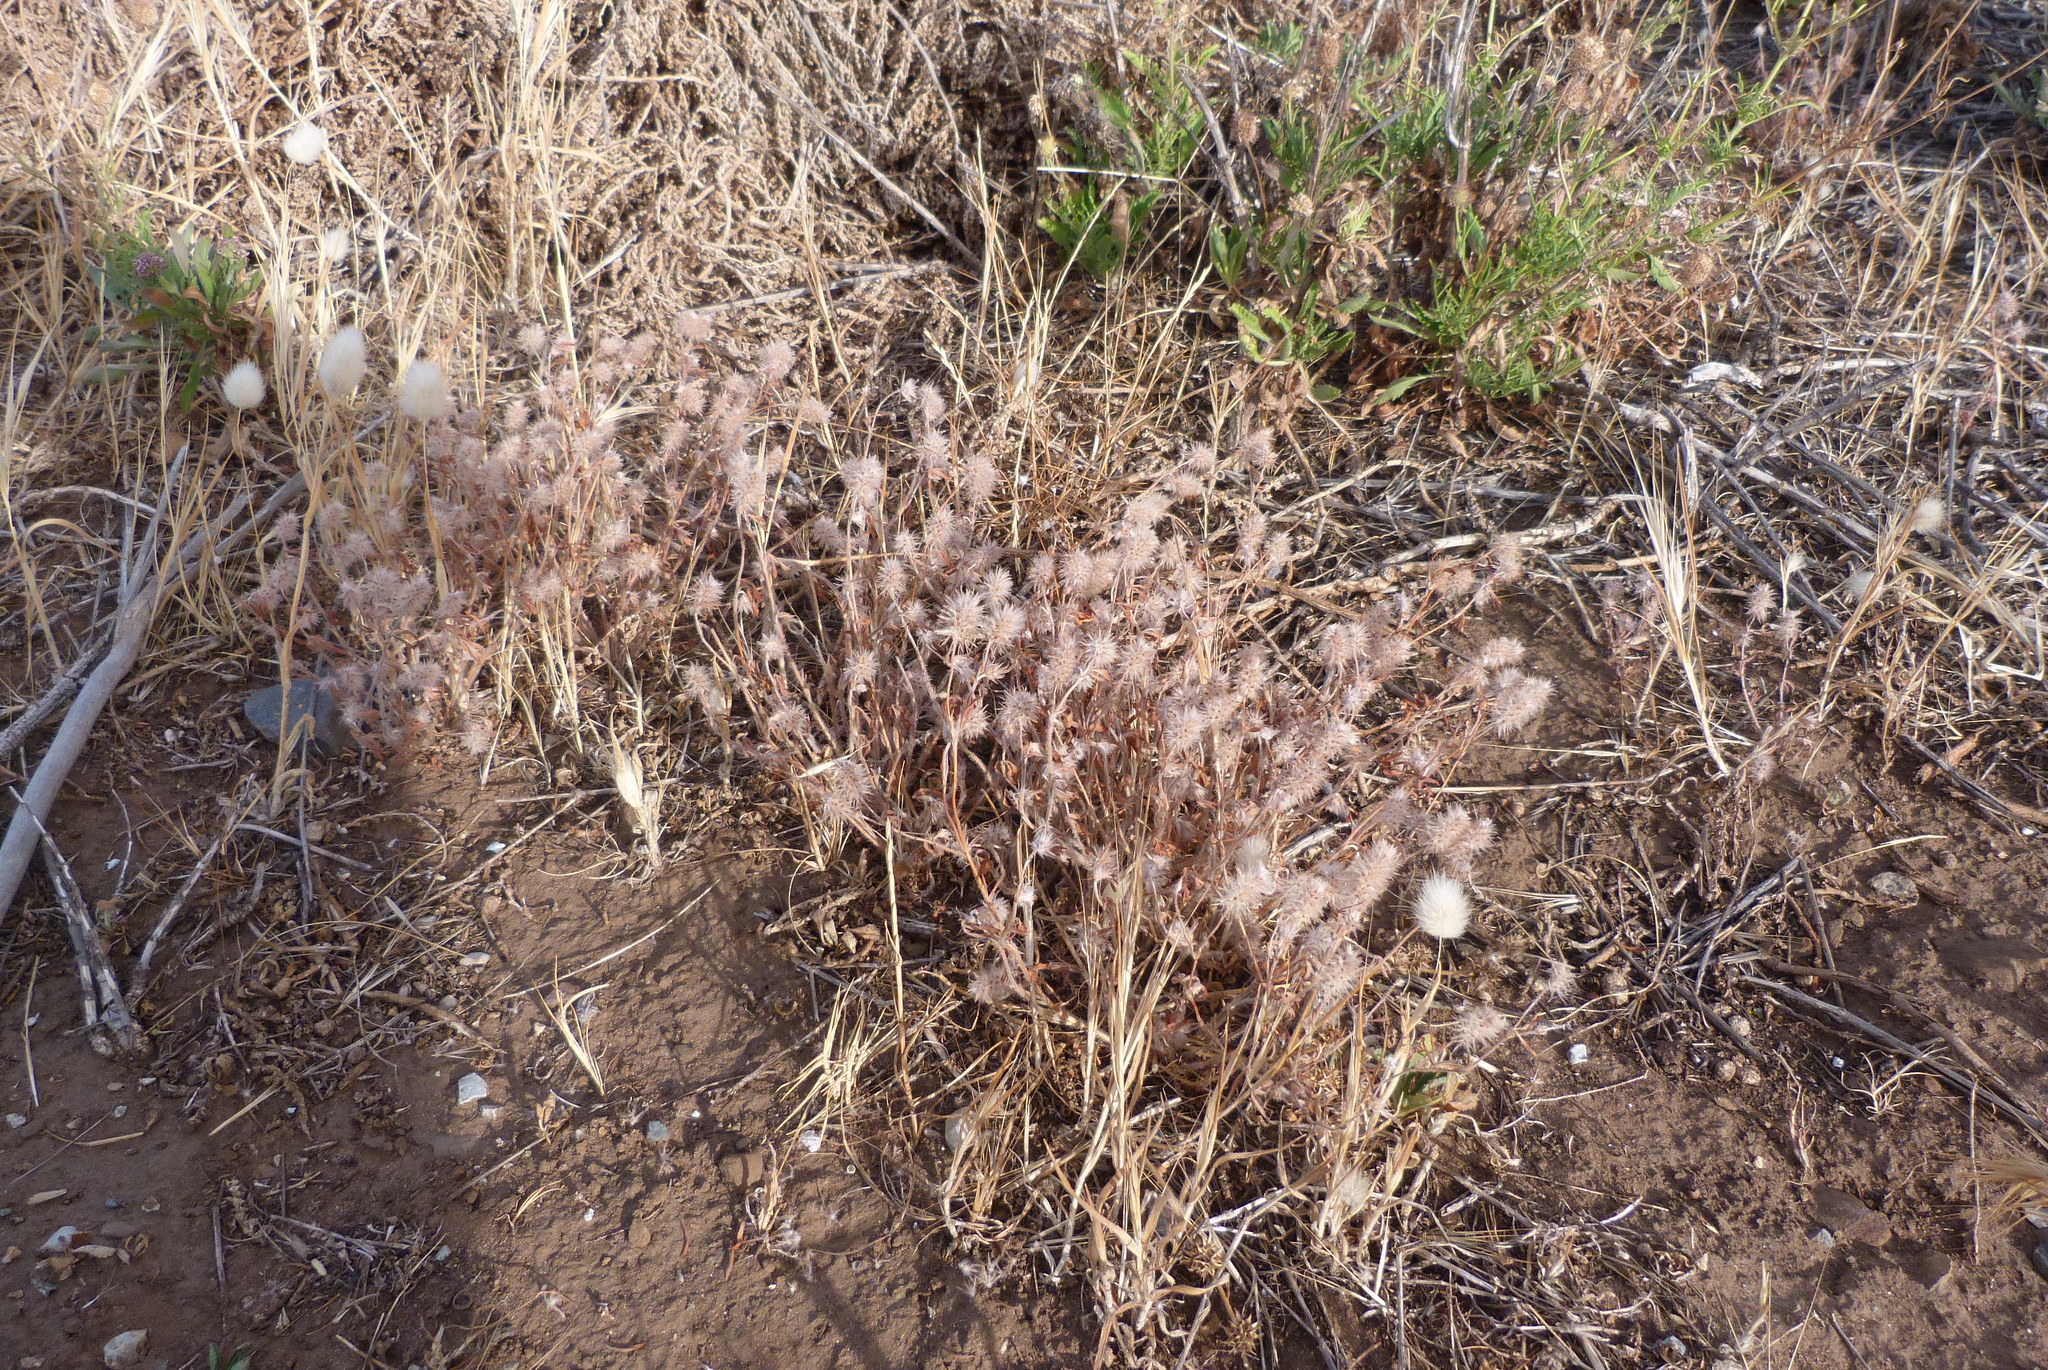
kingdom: Plantae
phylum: Tracheophyta
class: Magnoliopsida
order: Fabales
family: Fabaceae
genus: Trifolium
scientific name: Trifolium arvense
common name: Hare's-foot clover
